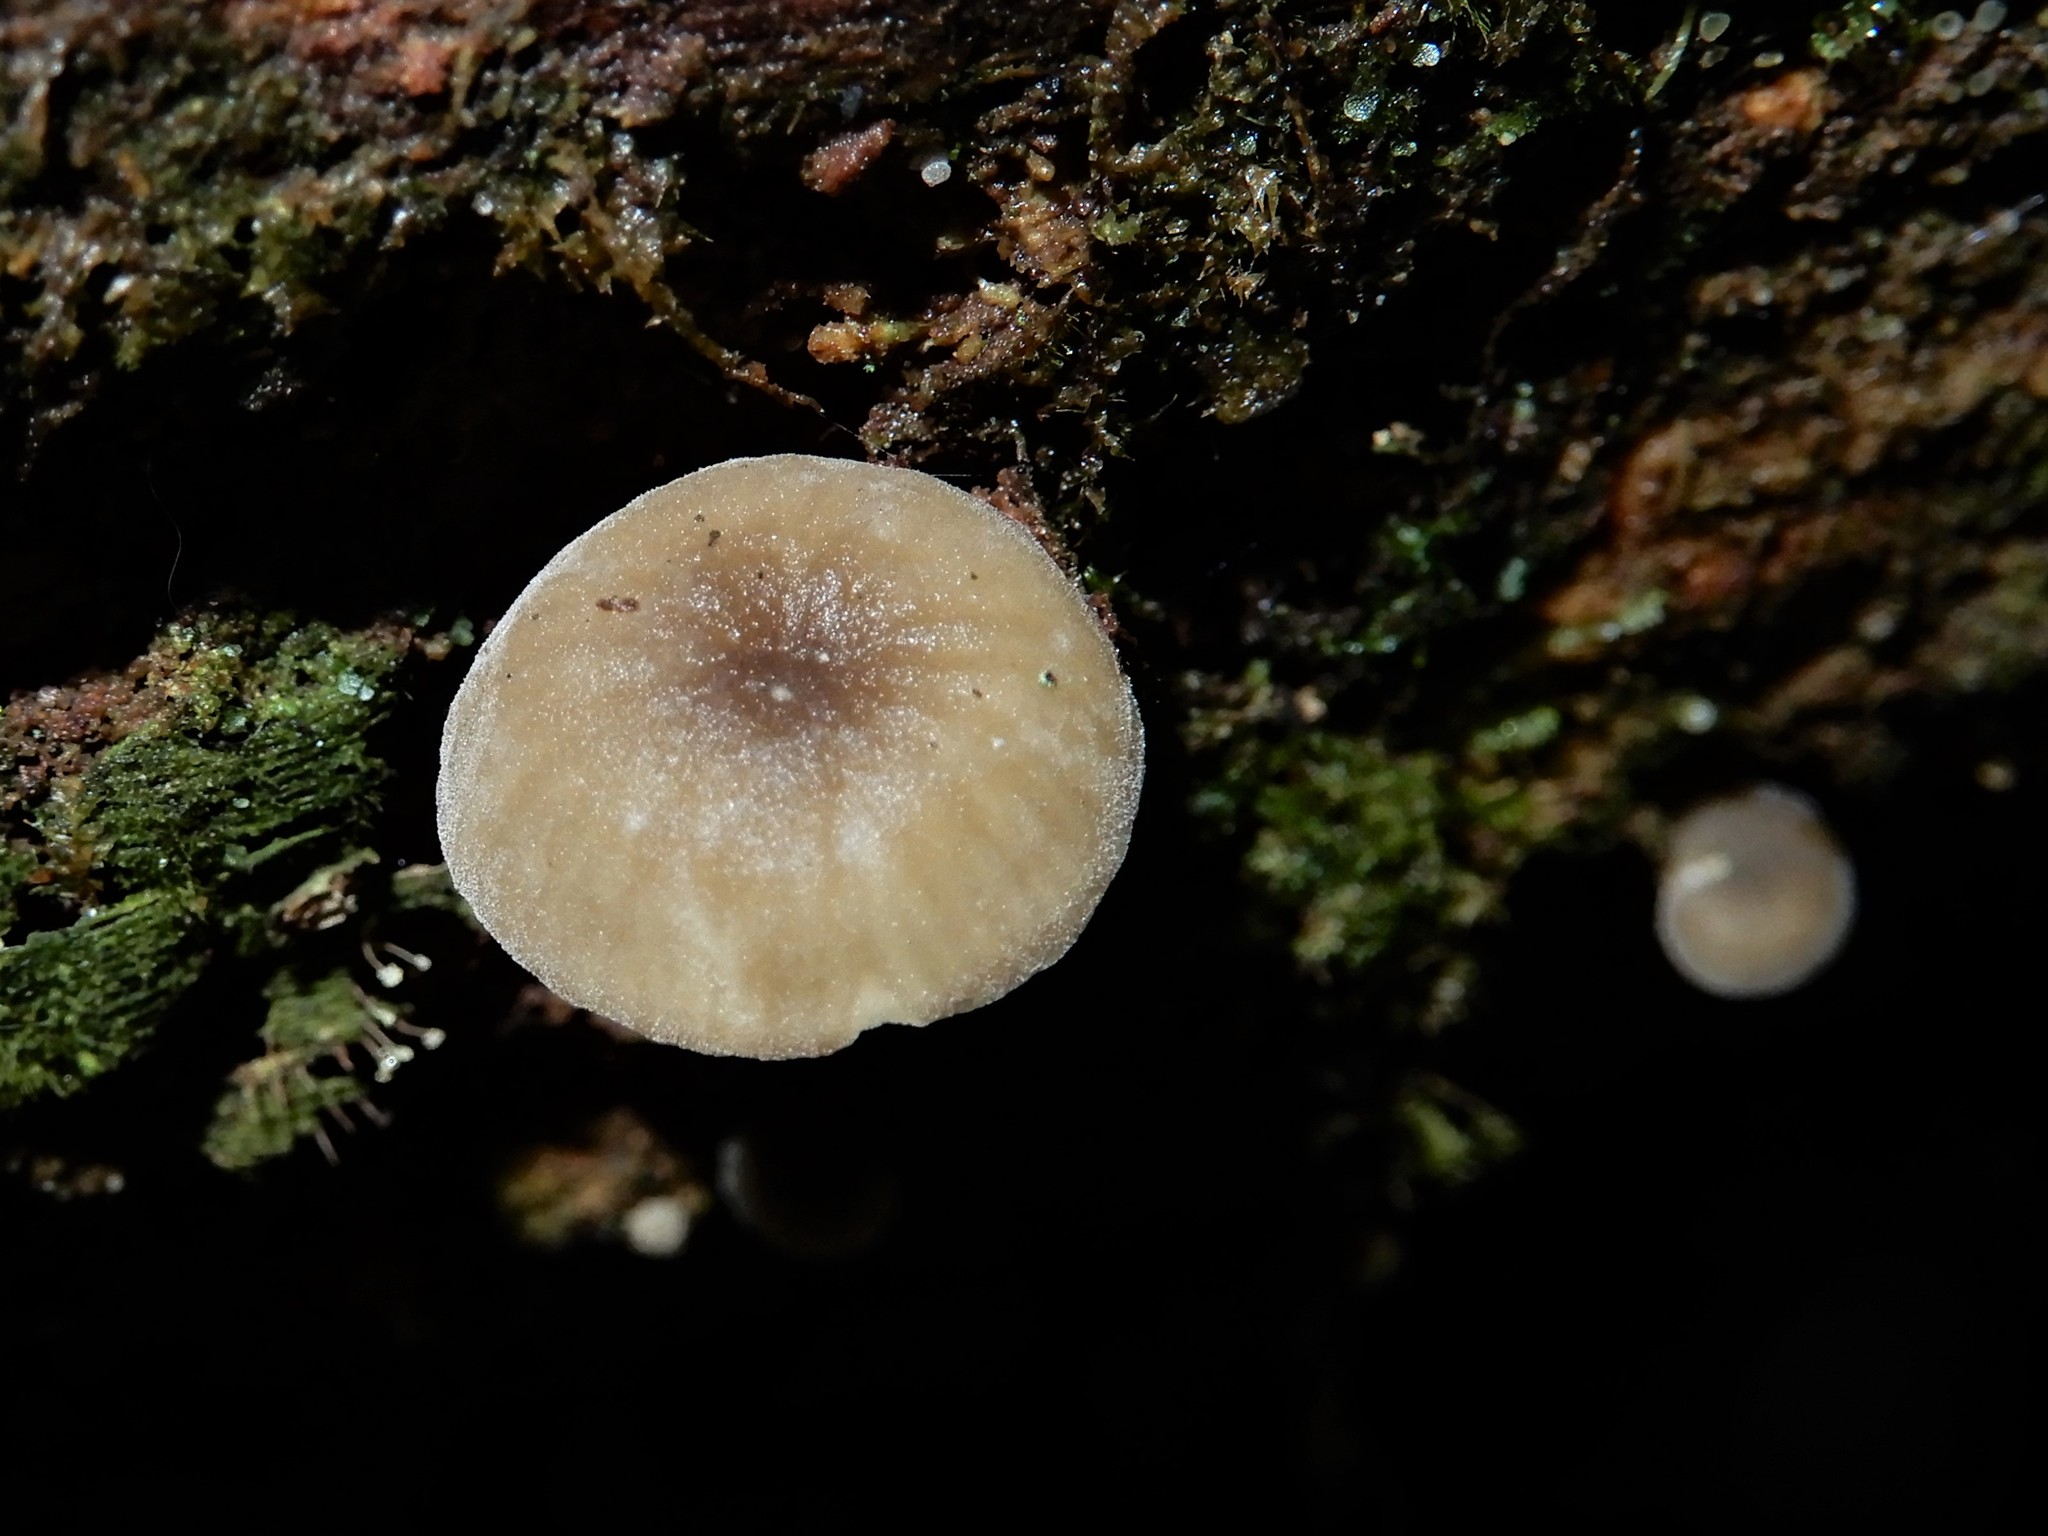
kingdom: Fungi
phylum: Basidiomycota
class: Agaricomycetes
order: Agaricales
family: Marasmiaceae
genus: Clitocybula
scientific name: Clitocybula grisella
